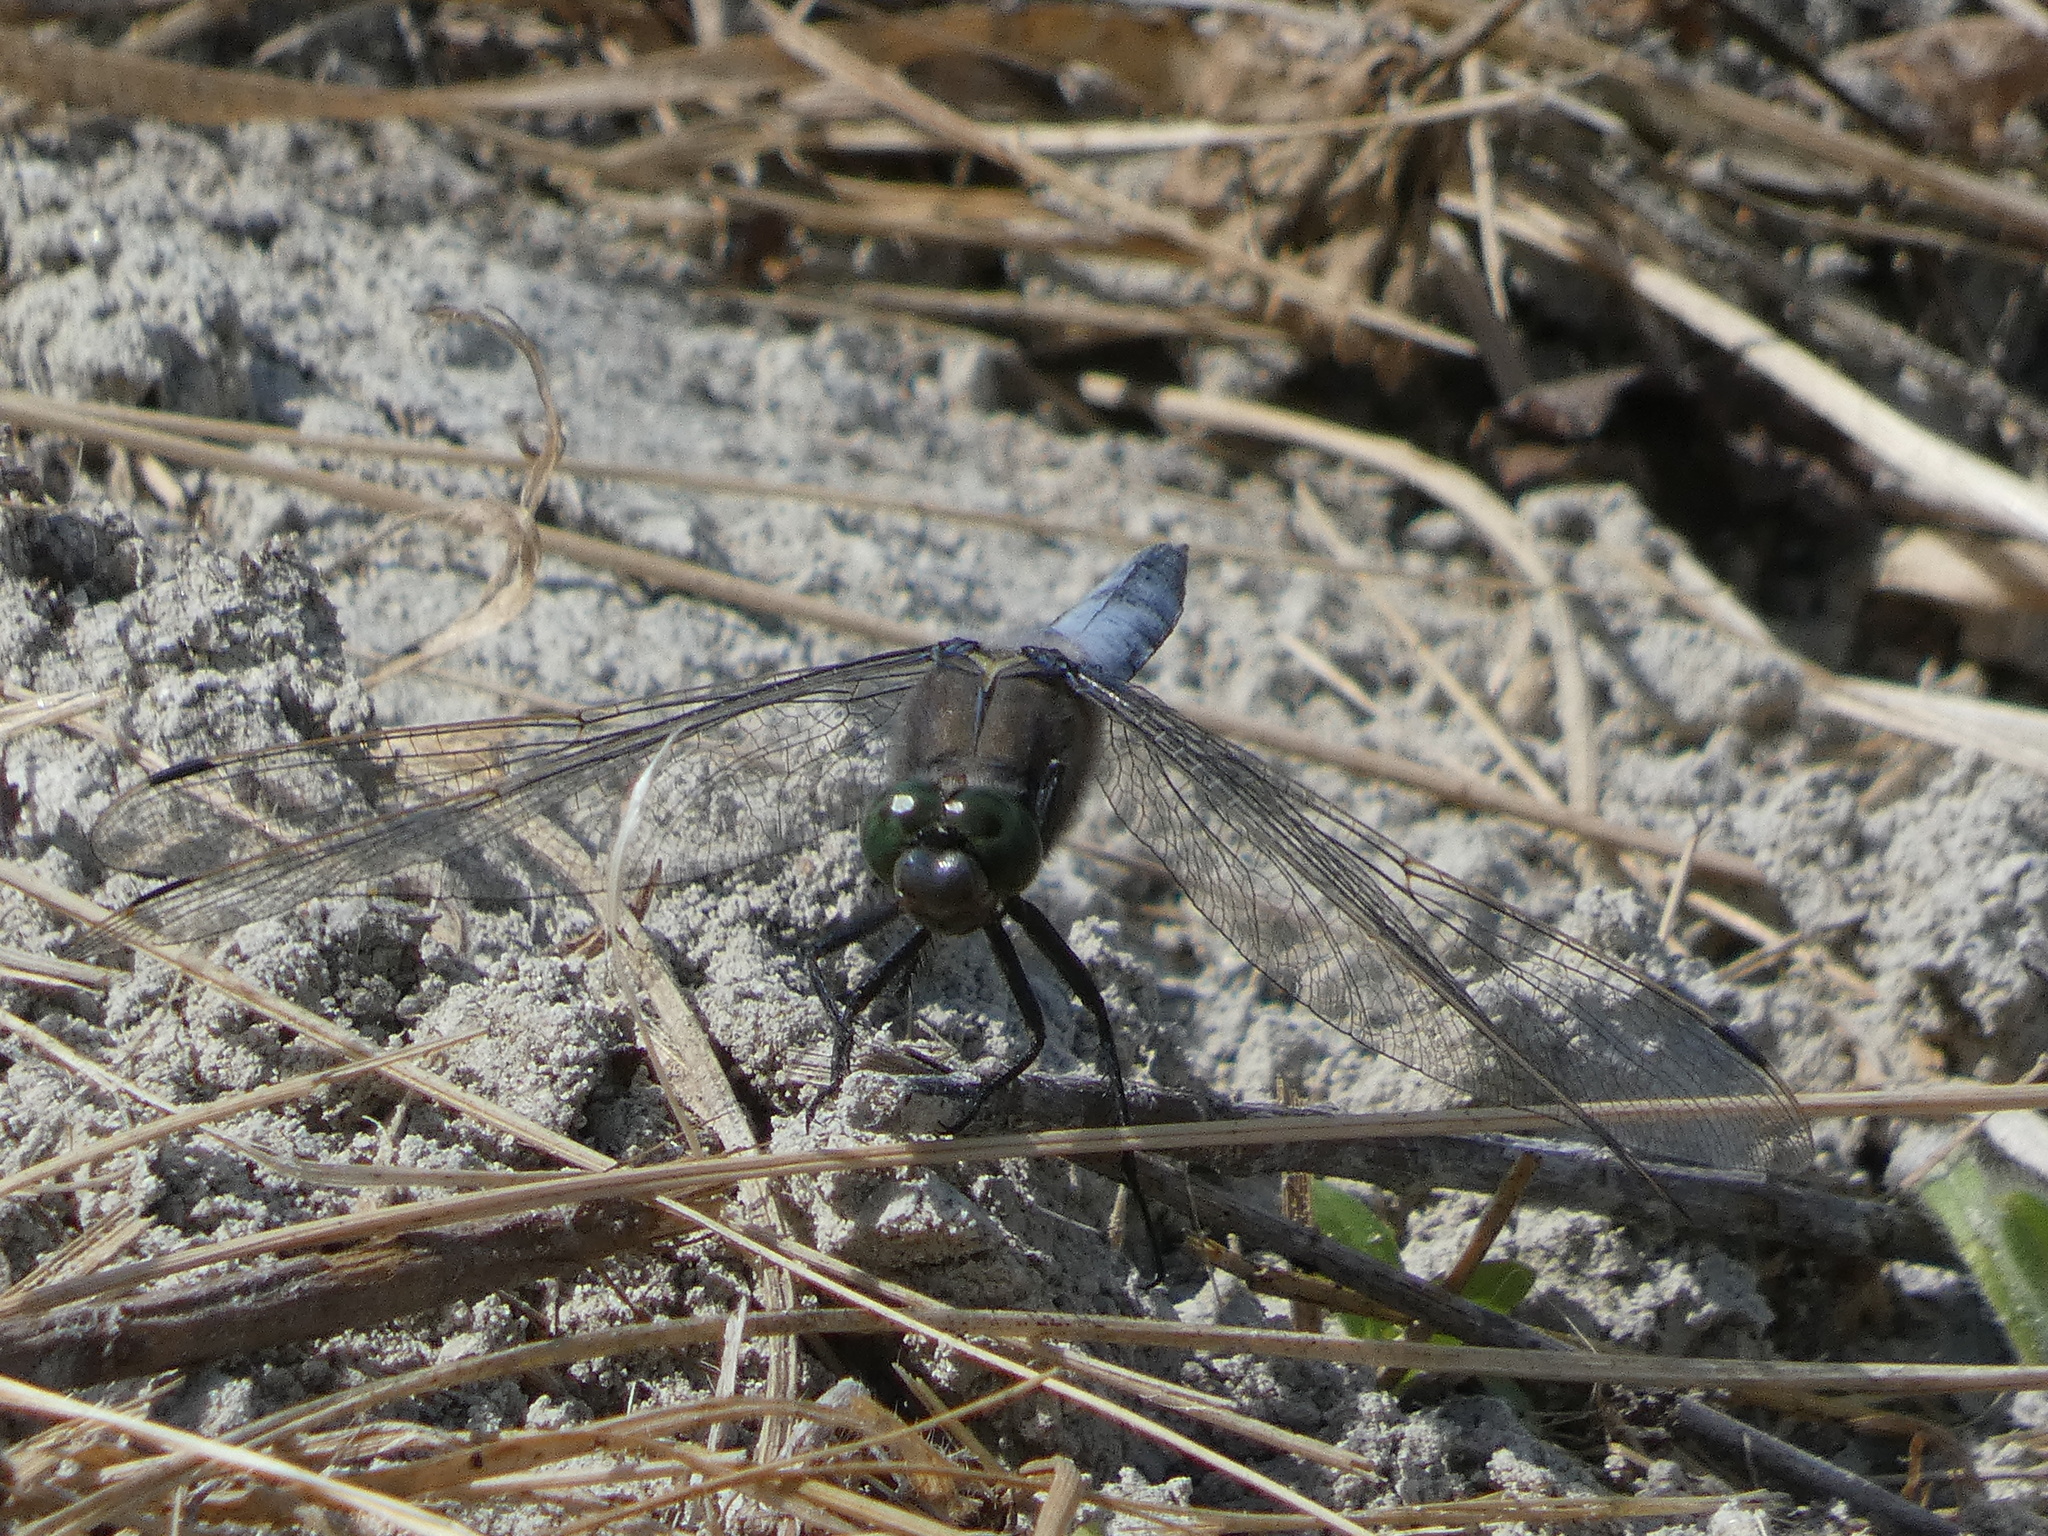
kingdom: Animalia
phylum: Arthropoda
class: Insecta
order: Odonata
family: Libellulidae
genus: Orthetrum
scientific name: Orthetrum cancellatum
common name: Black-tailed skimmer
